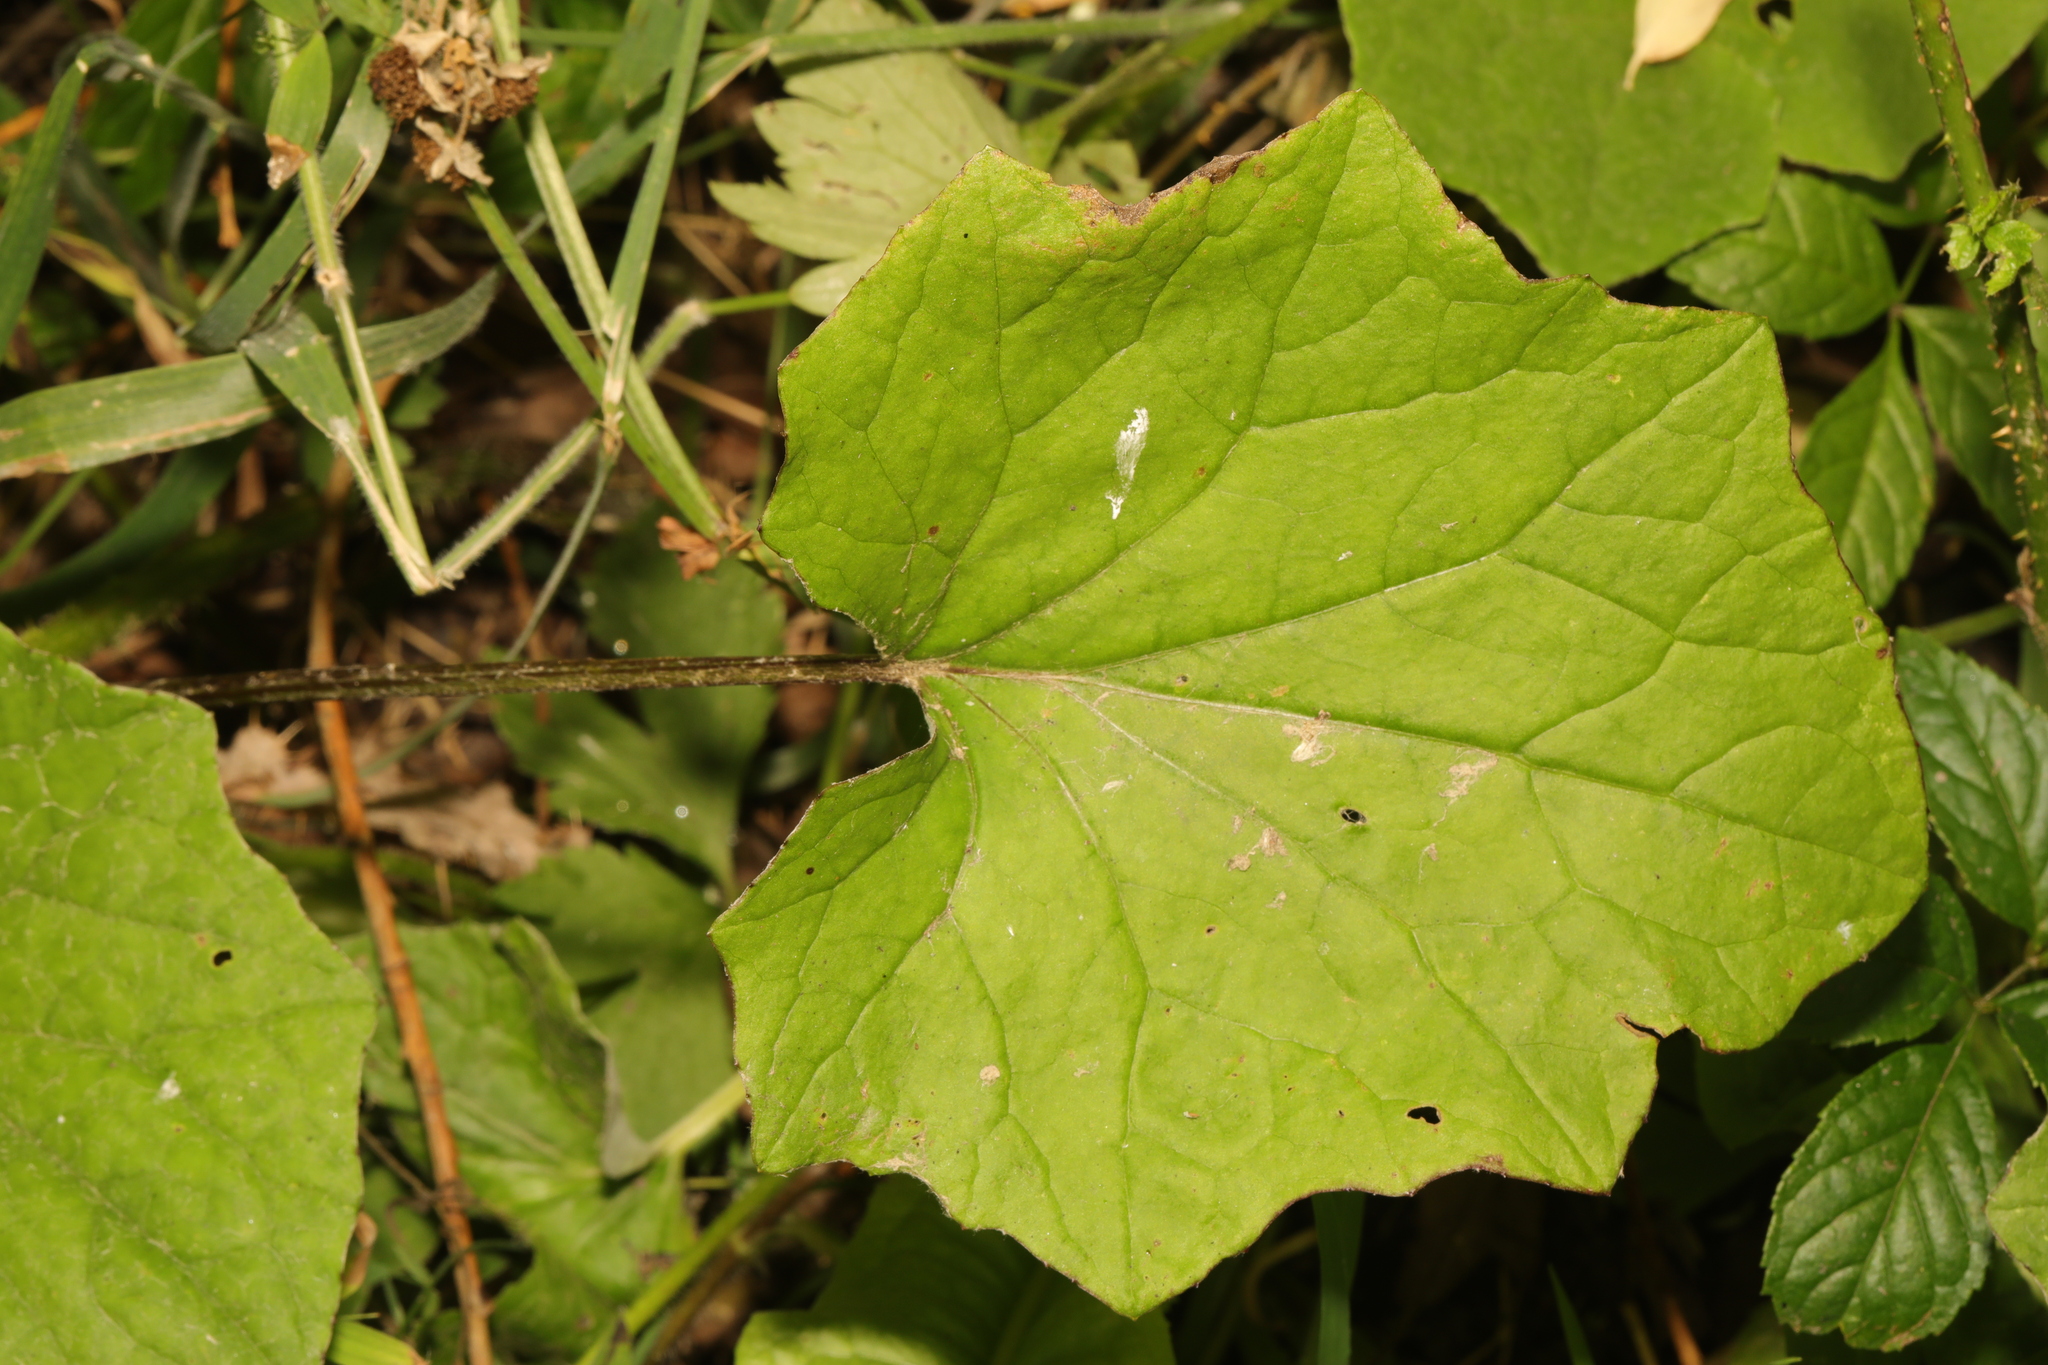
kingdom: Plantae
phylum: Tracheophyta
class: Magnoliopsida
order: Asterales
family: Asteraceae
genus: Tussilago
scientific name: Tussilago farfara
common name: Coltsfoot
